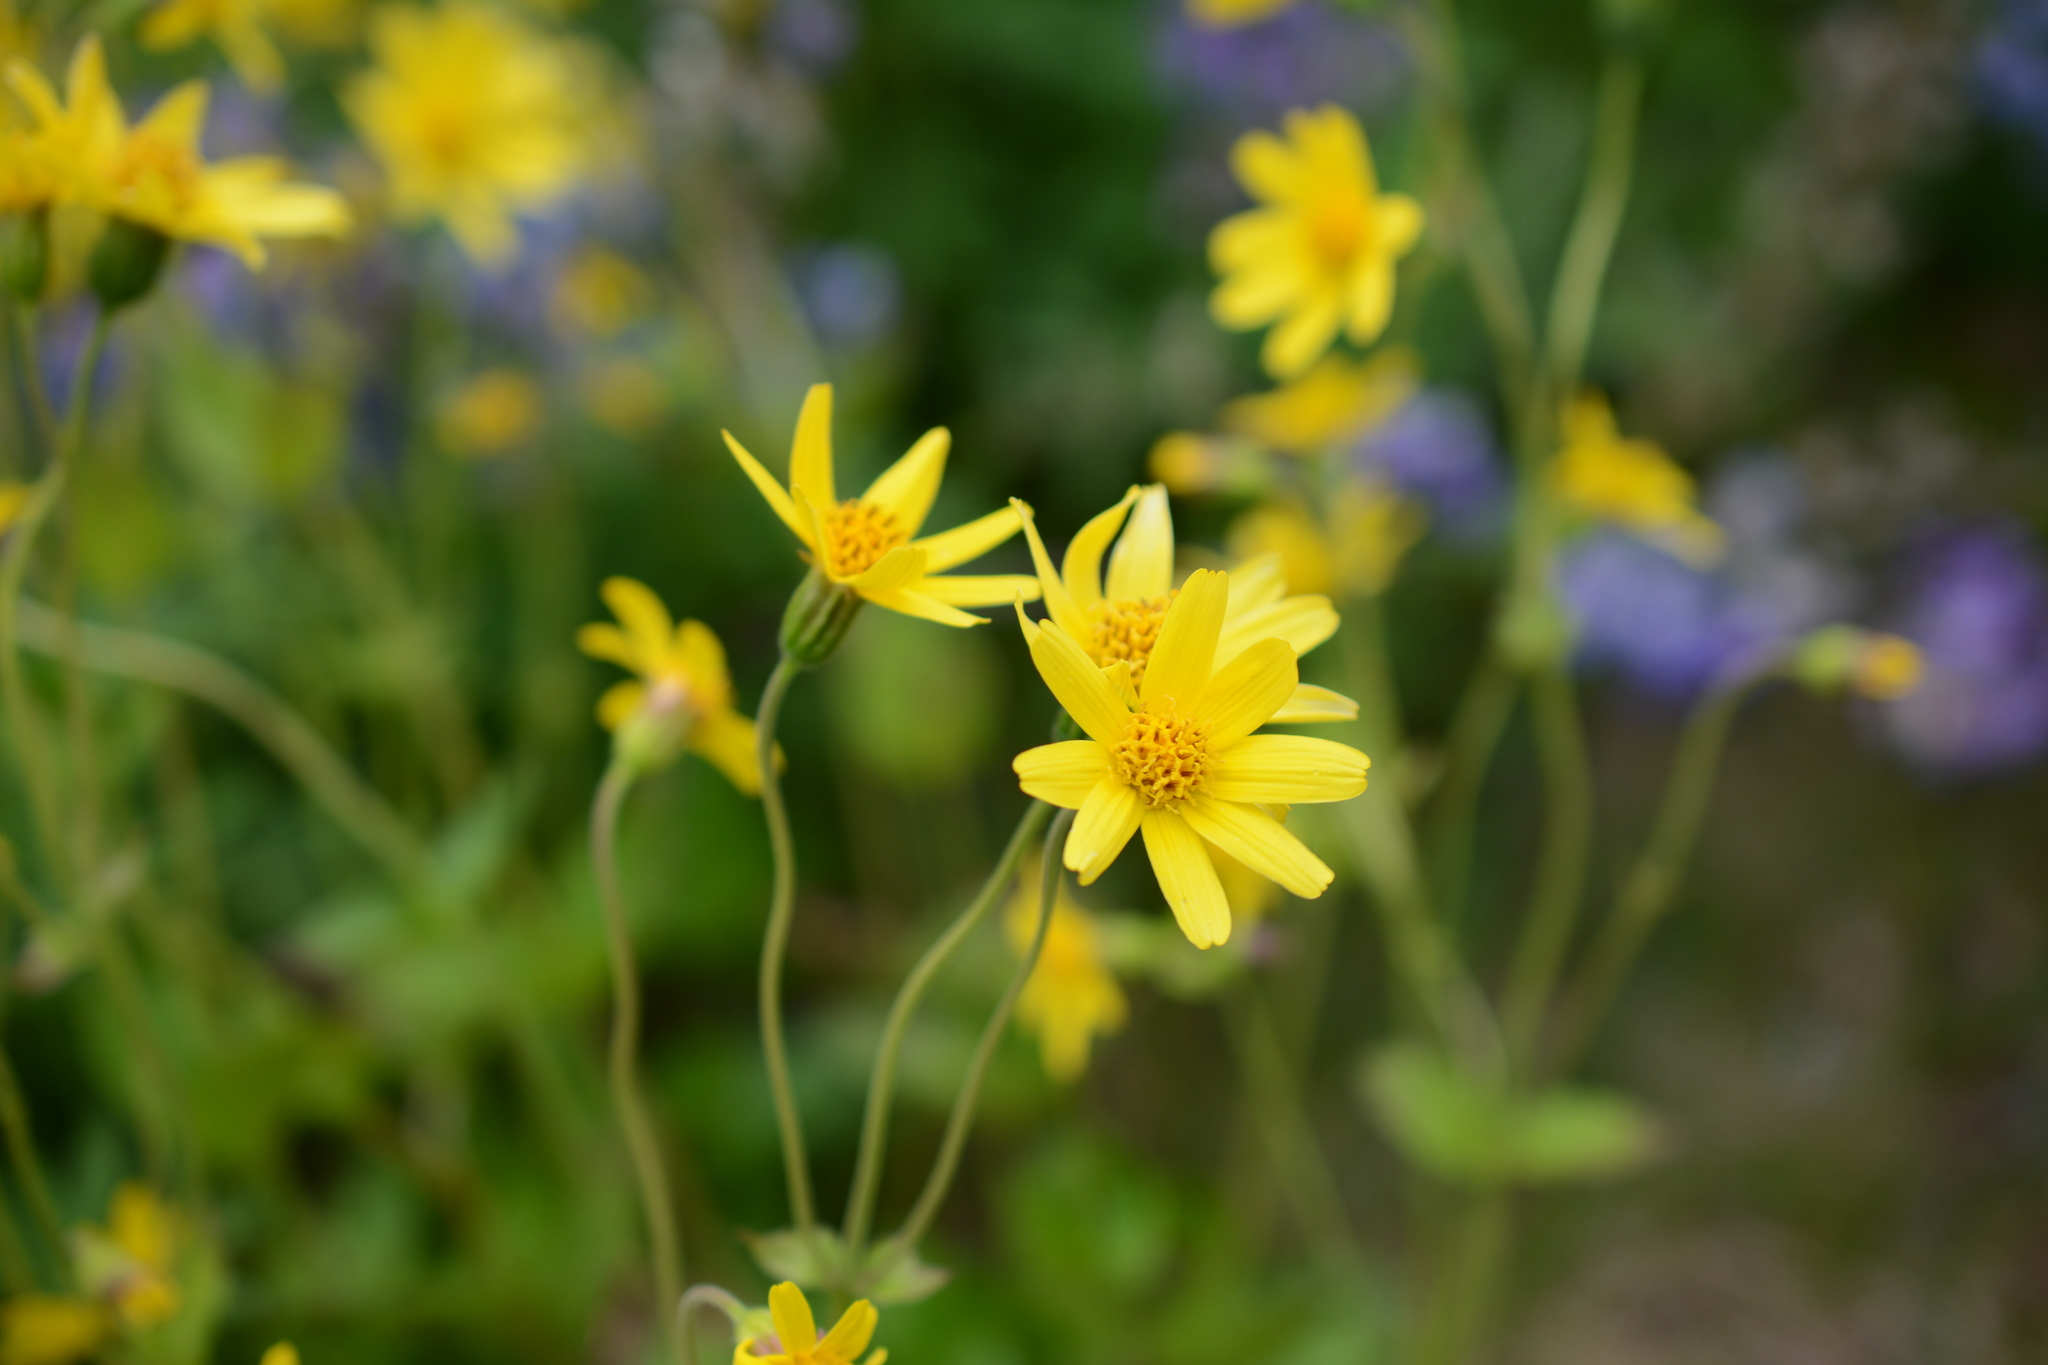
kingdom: Plantae
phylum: Tracheophyta
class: Magnoliopsida
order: Asterales
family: Asteraceae
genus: Arnica
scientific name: Arnica latifolia
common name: Arnica
